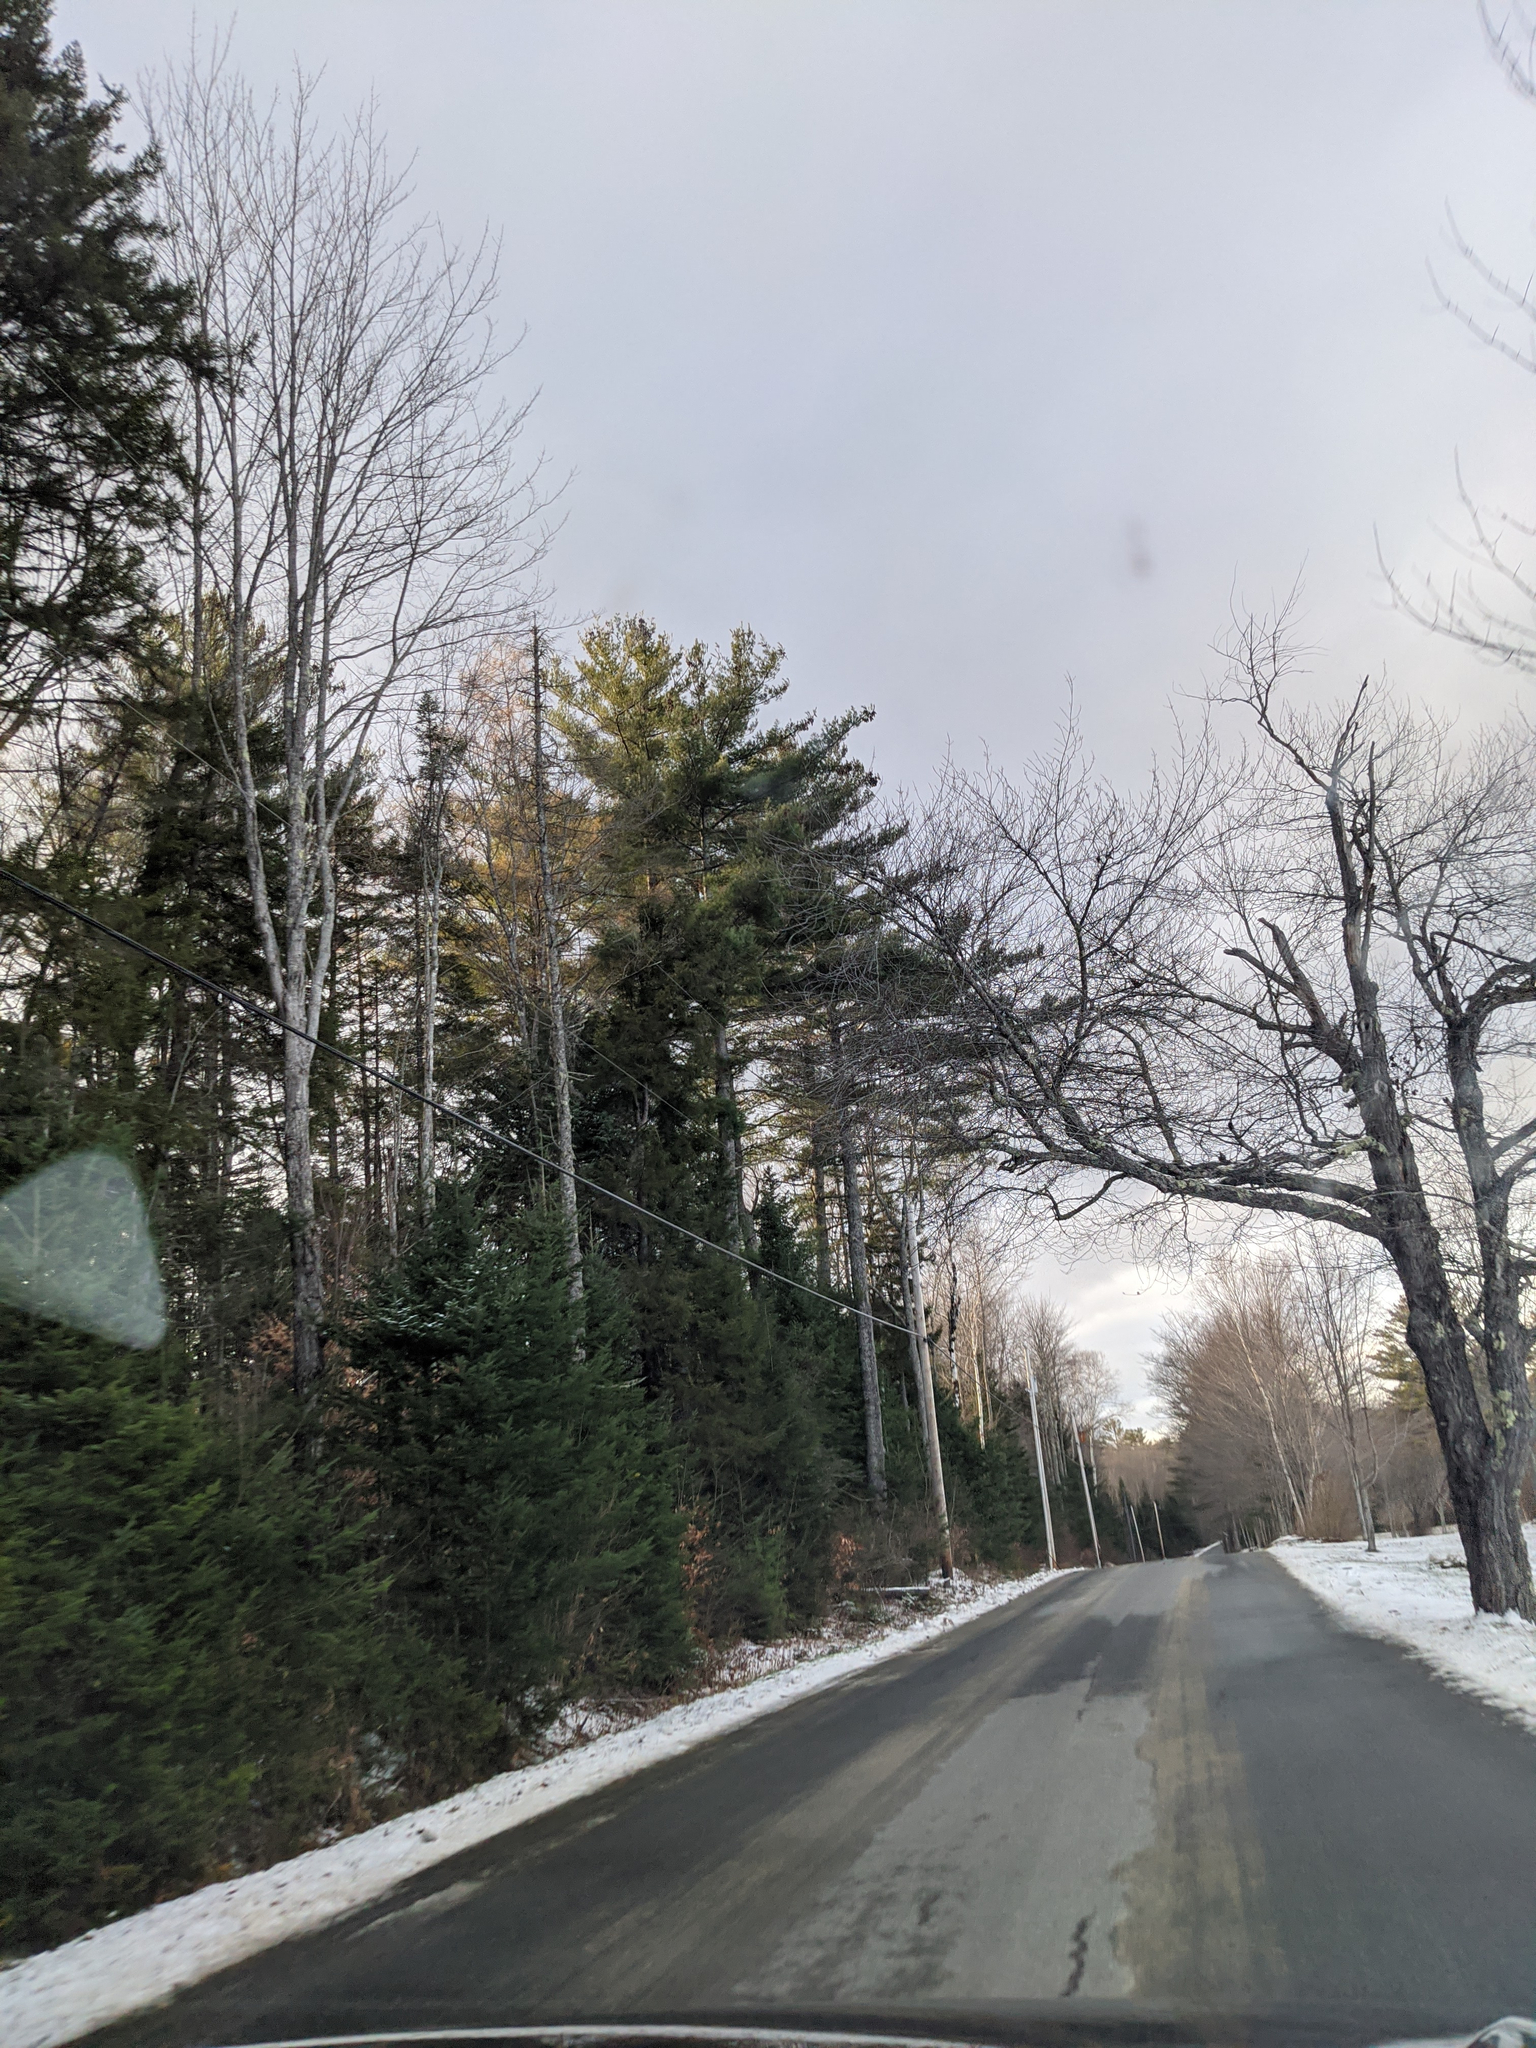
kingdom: Plantae
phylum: Tracheophyta
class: Pinopsida
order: Pinales
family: Pinaceae
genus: Pinus
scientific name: Pinus strobus
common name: Weymouth pine
